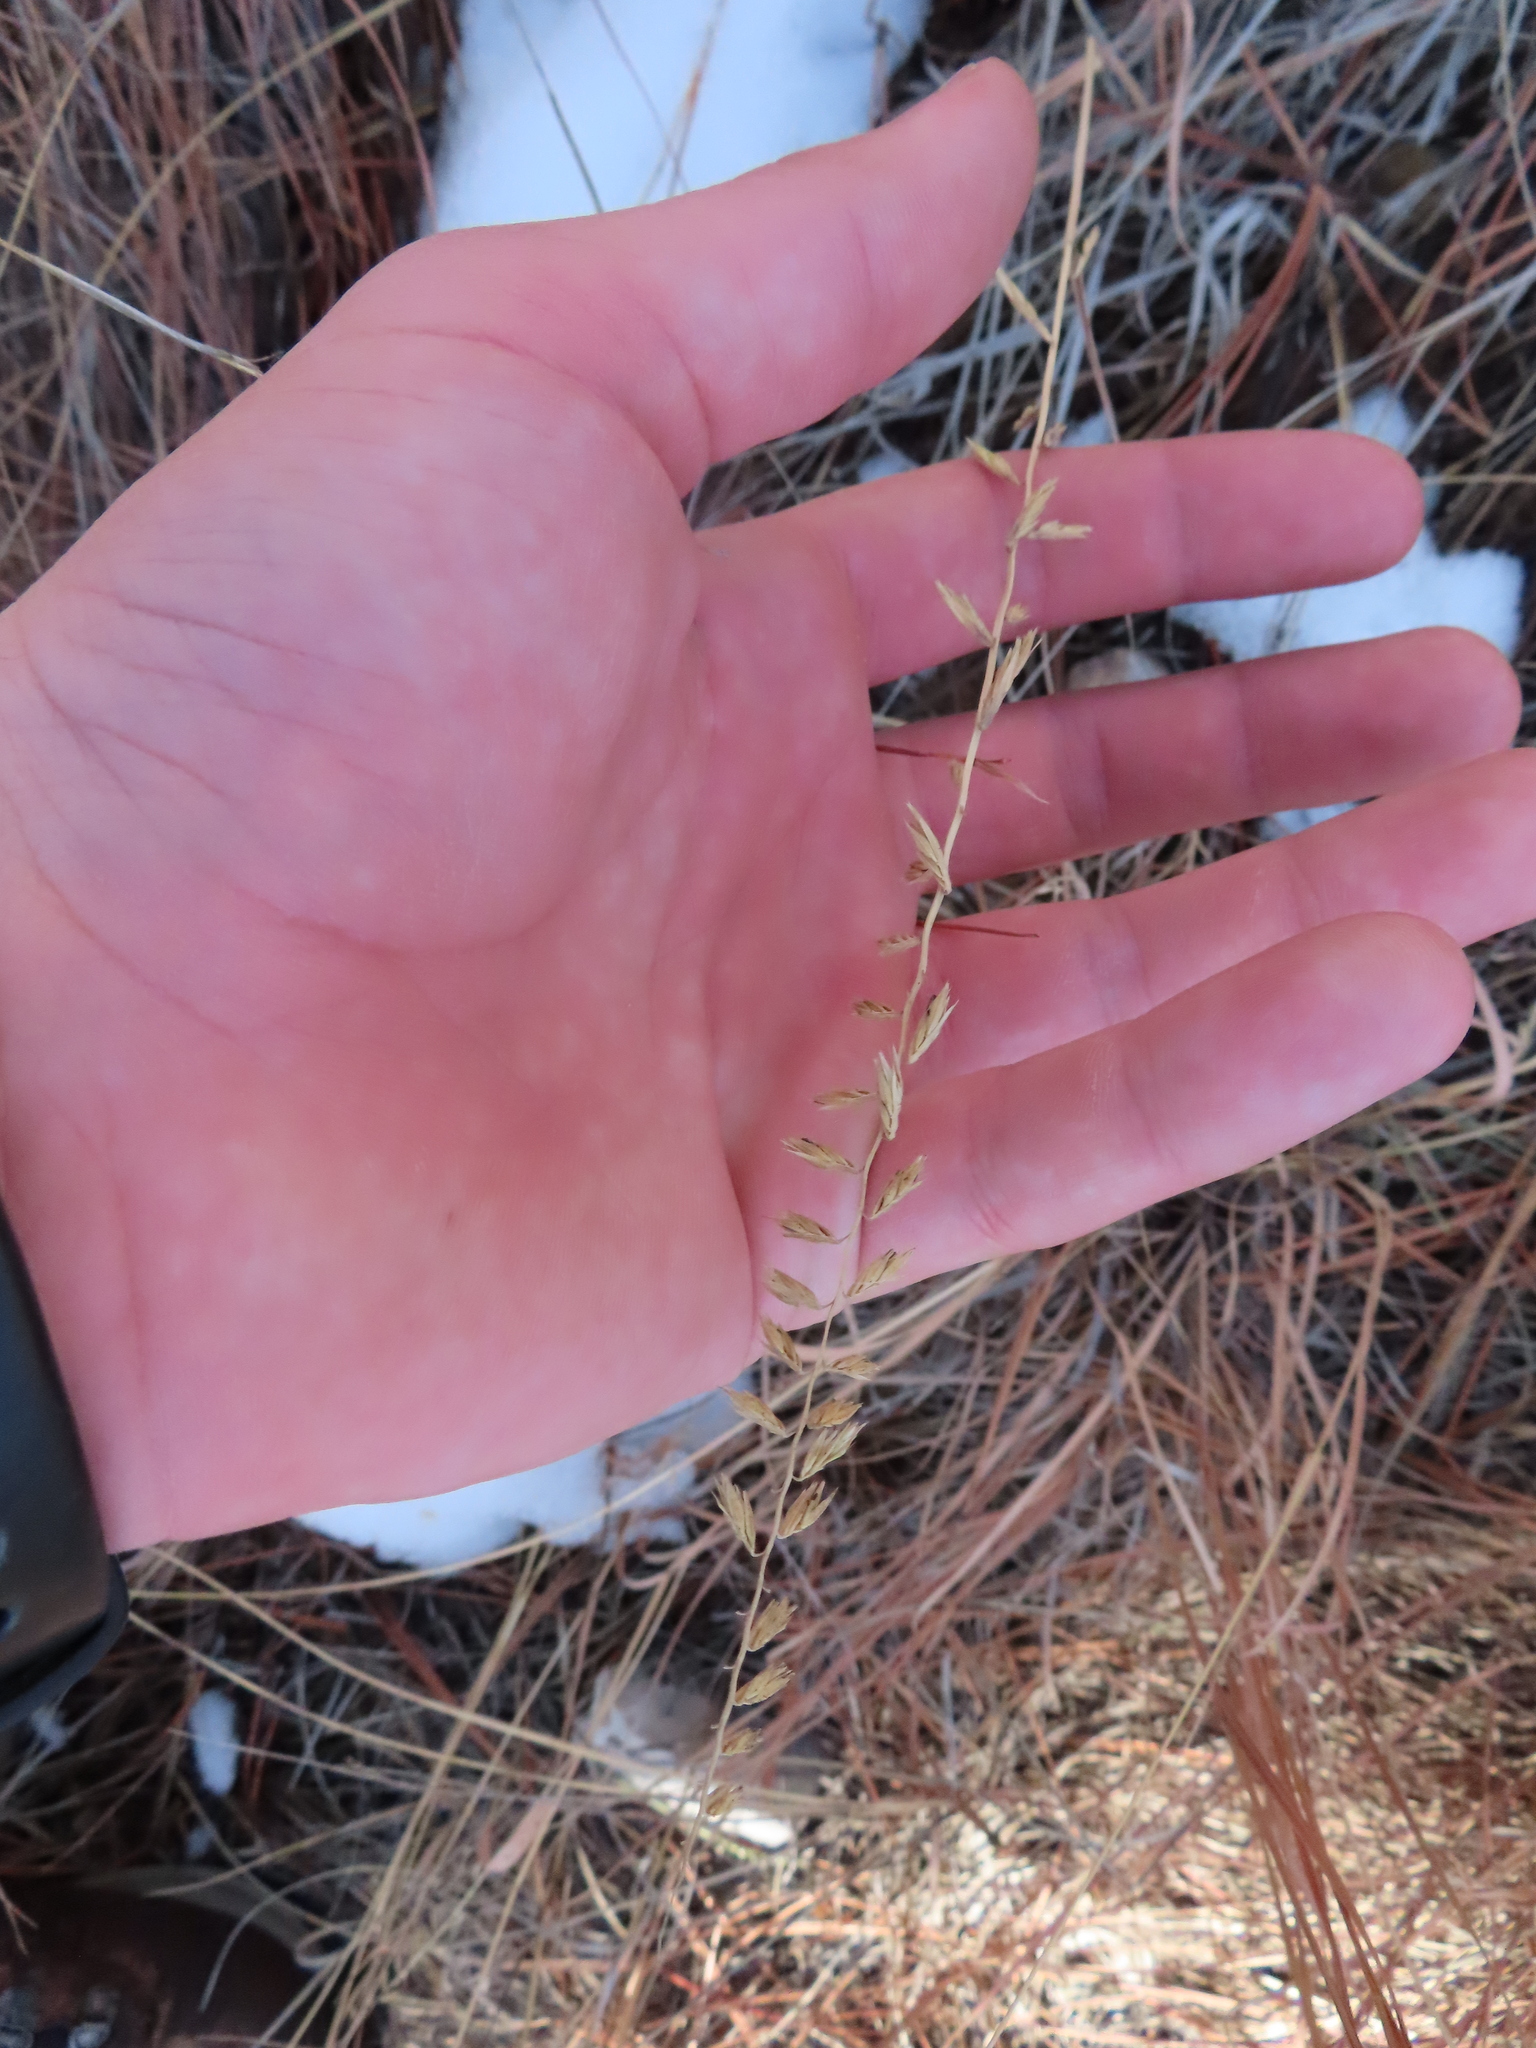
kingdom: Plantae
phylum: Tracheophyta
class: Liliopsida
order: Poales
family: Poaceae
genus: Bouteloua
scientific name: Bouteloua curtipendula
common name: Side-oats grama
